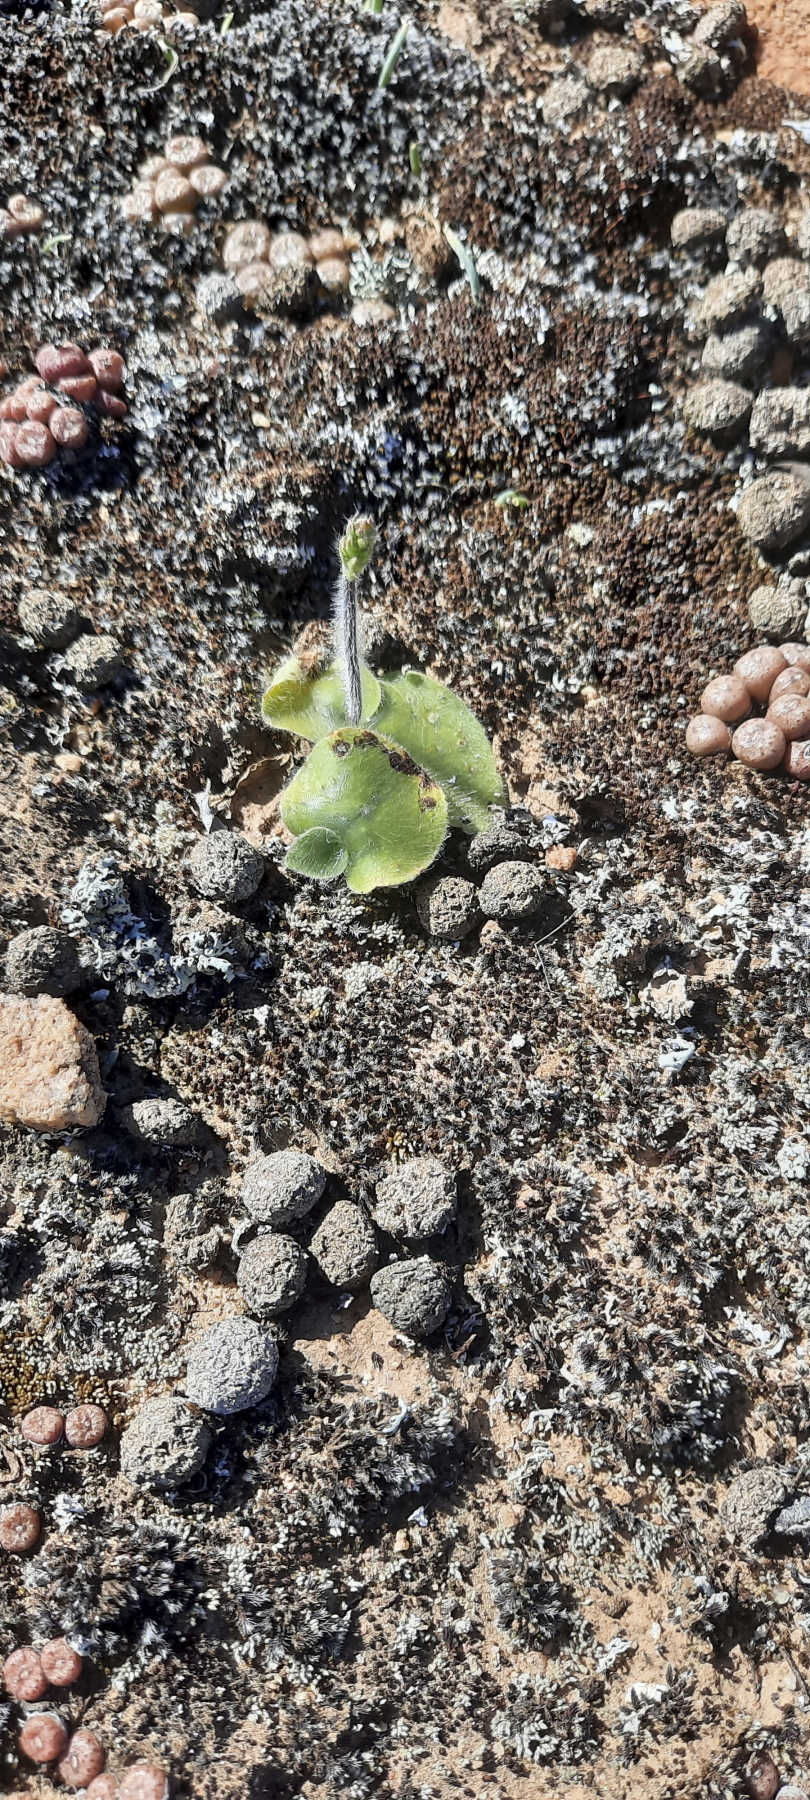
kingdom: Plantae
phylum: Tracheophyta
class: Magnoliopsida
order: Caryophyllales
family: Aizoaceae
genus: Conophytum
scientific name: Conophytum obcordellum
